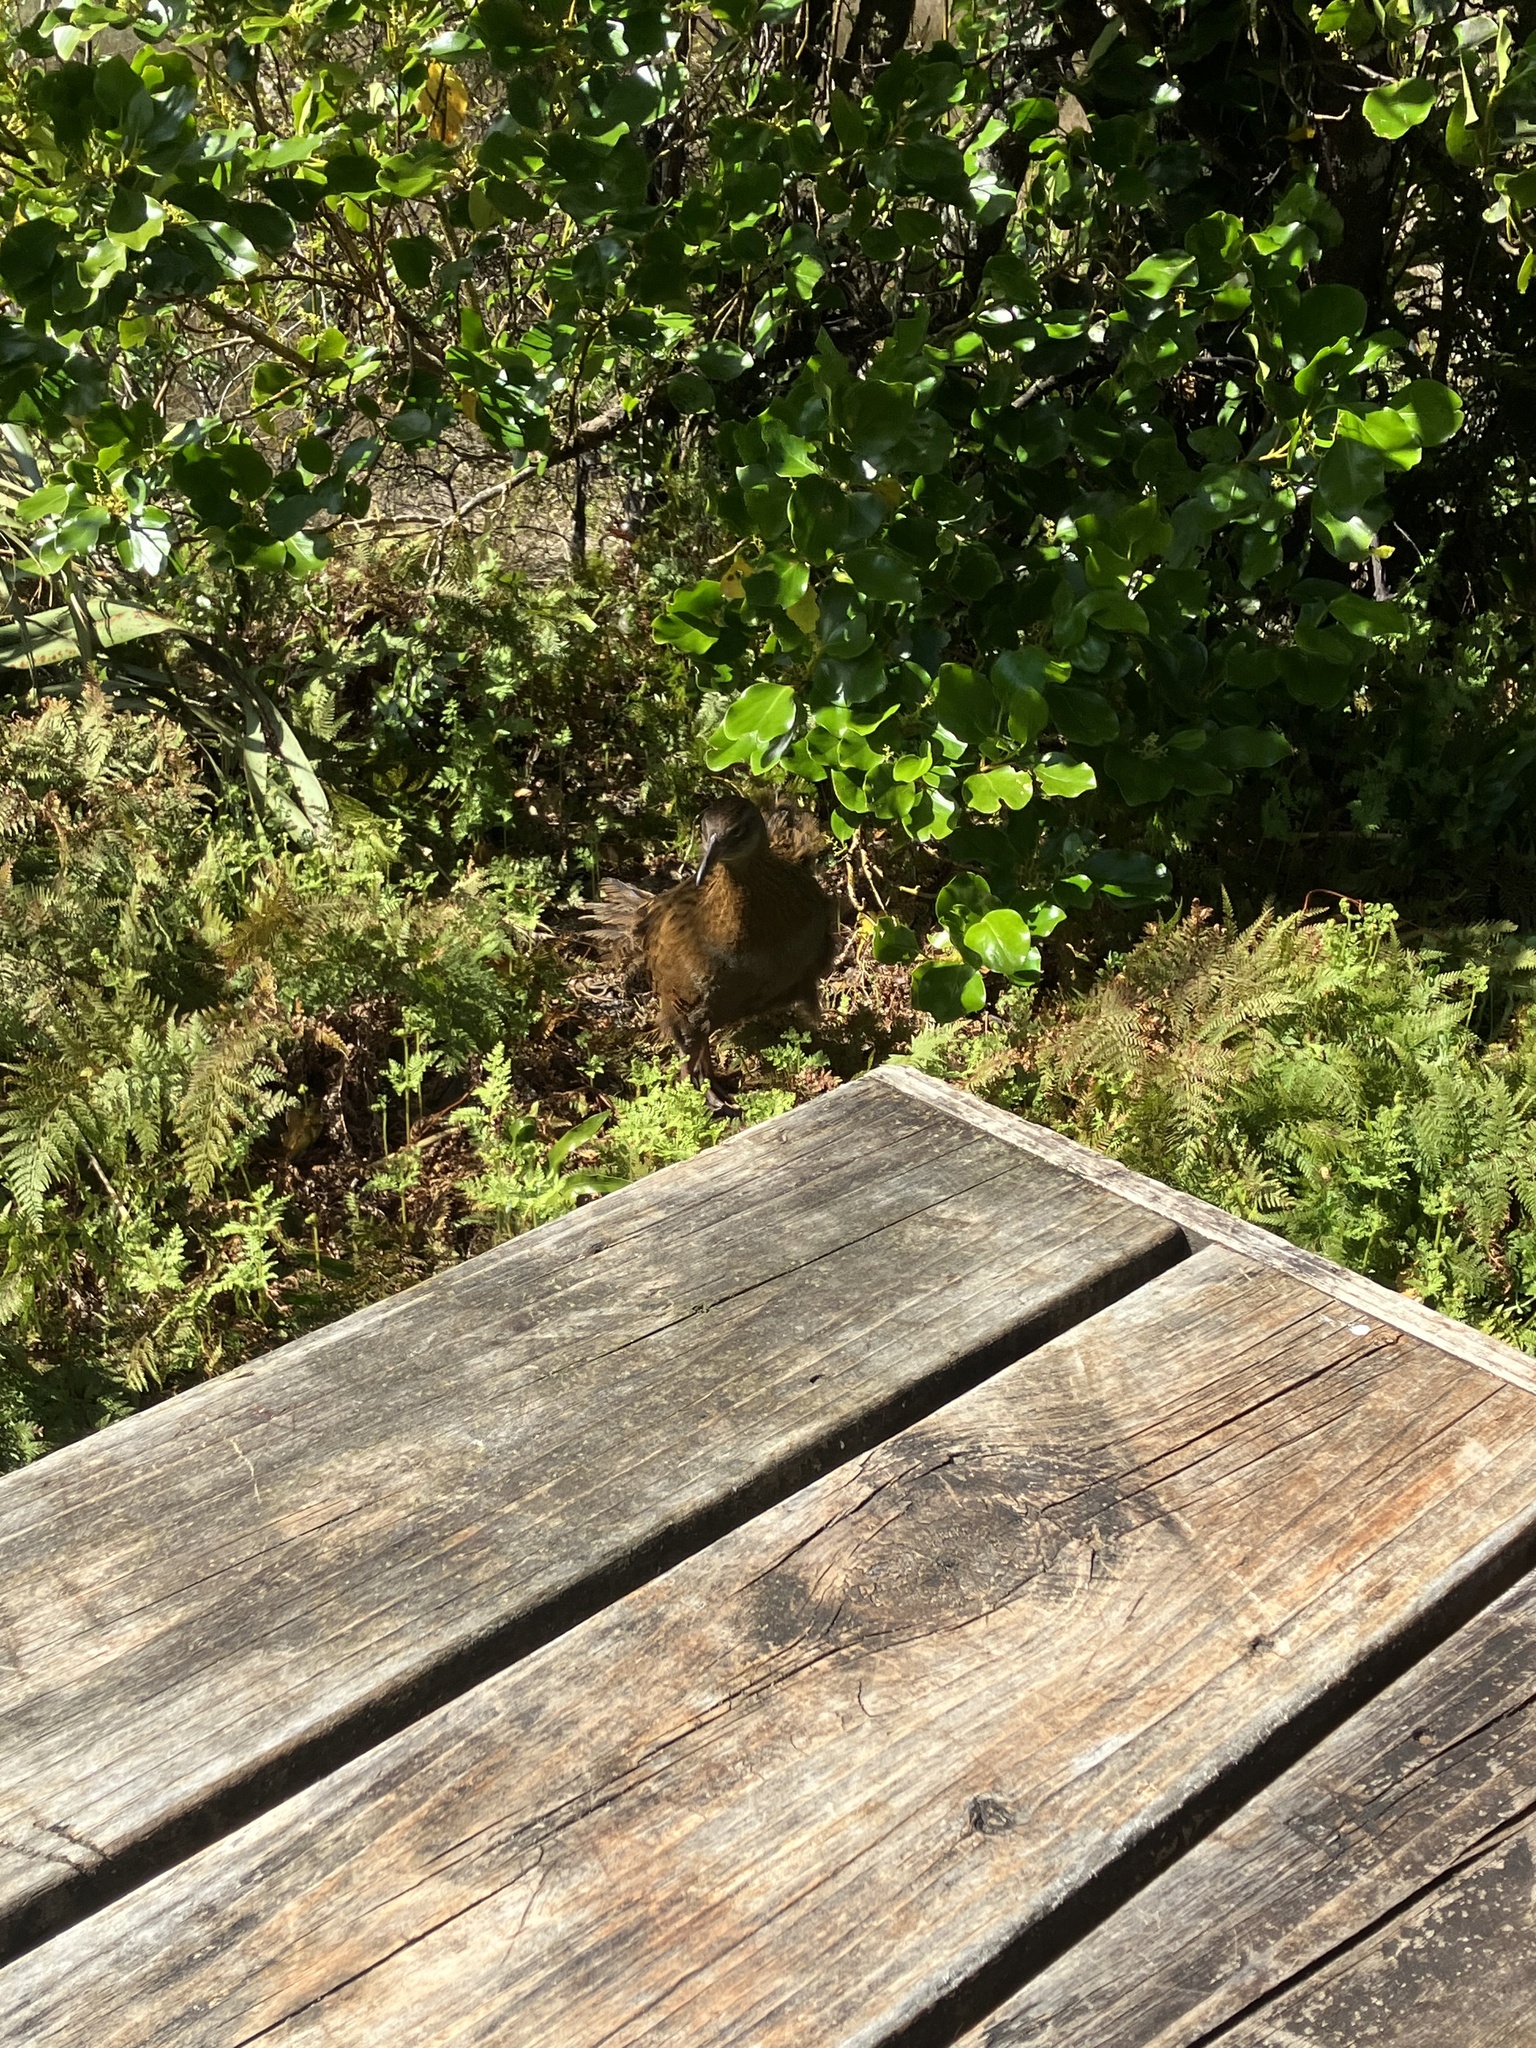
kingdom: Animalia
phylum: Chordata
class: Aves
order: Gruiformes
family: Rallidae
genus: Gallirallus
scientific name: Gallirallus australis
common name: Weka
